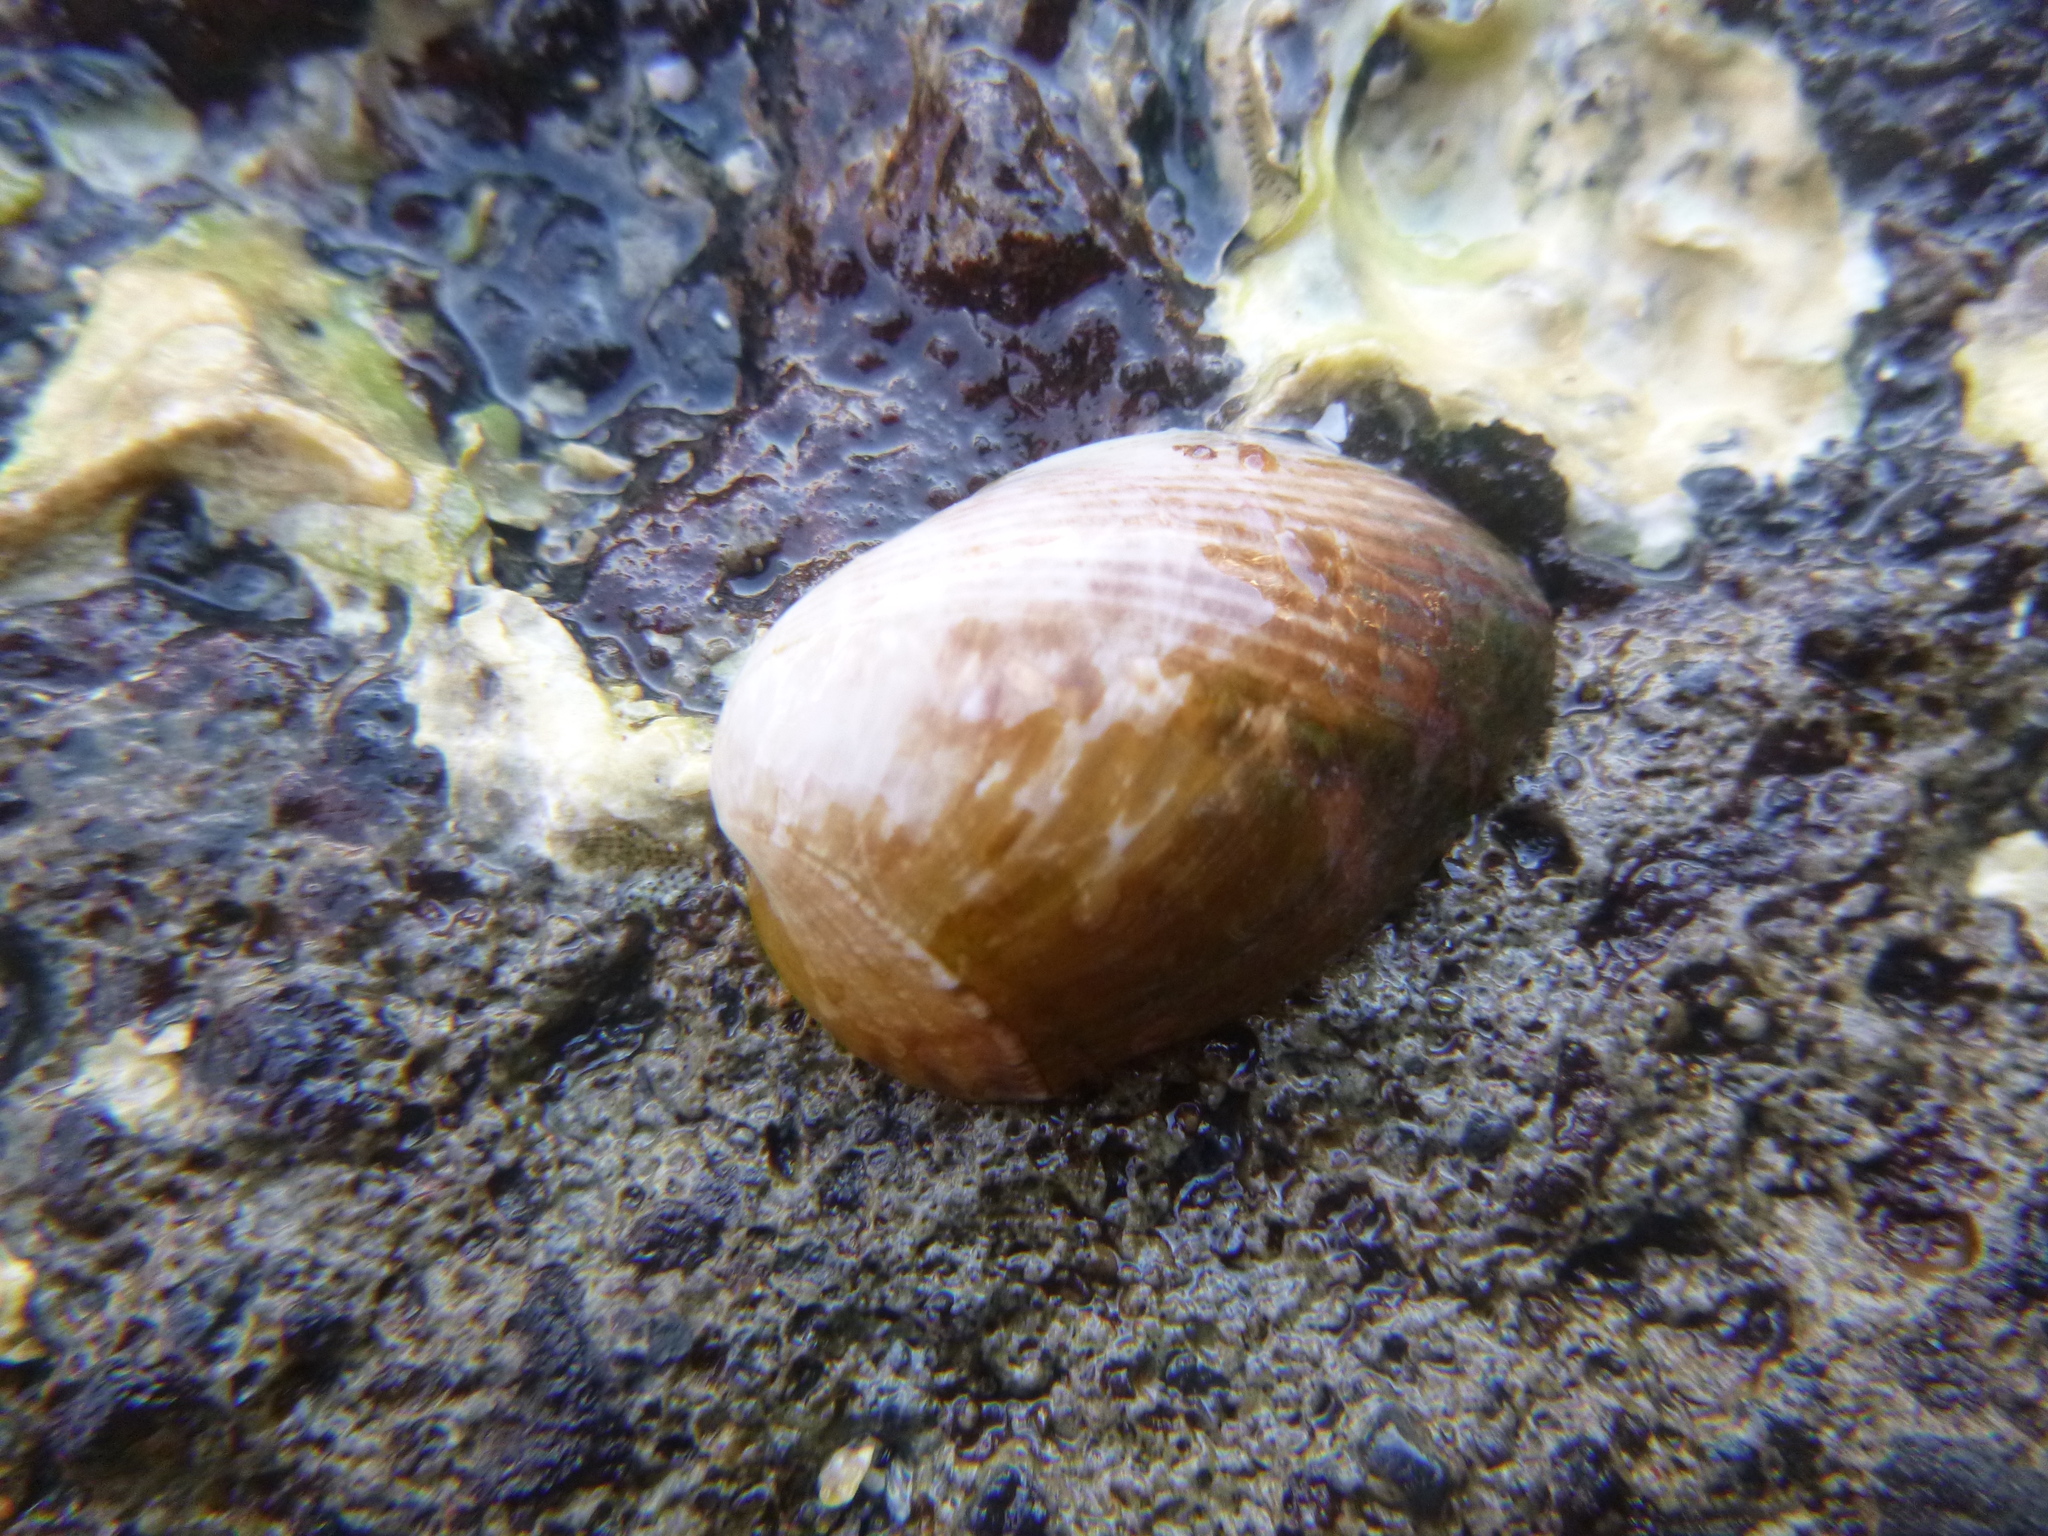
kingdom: Animalia
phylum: Mollusca
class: Bivalvia
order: Mytilida
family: Mytilidae
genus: Musculus
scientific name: Musculus impactus
